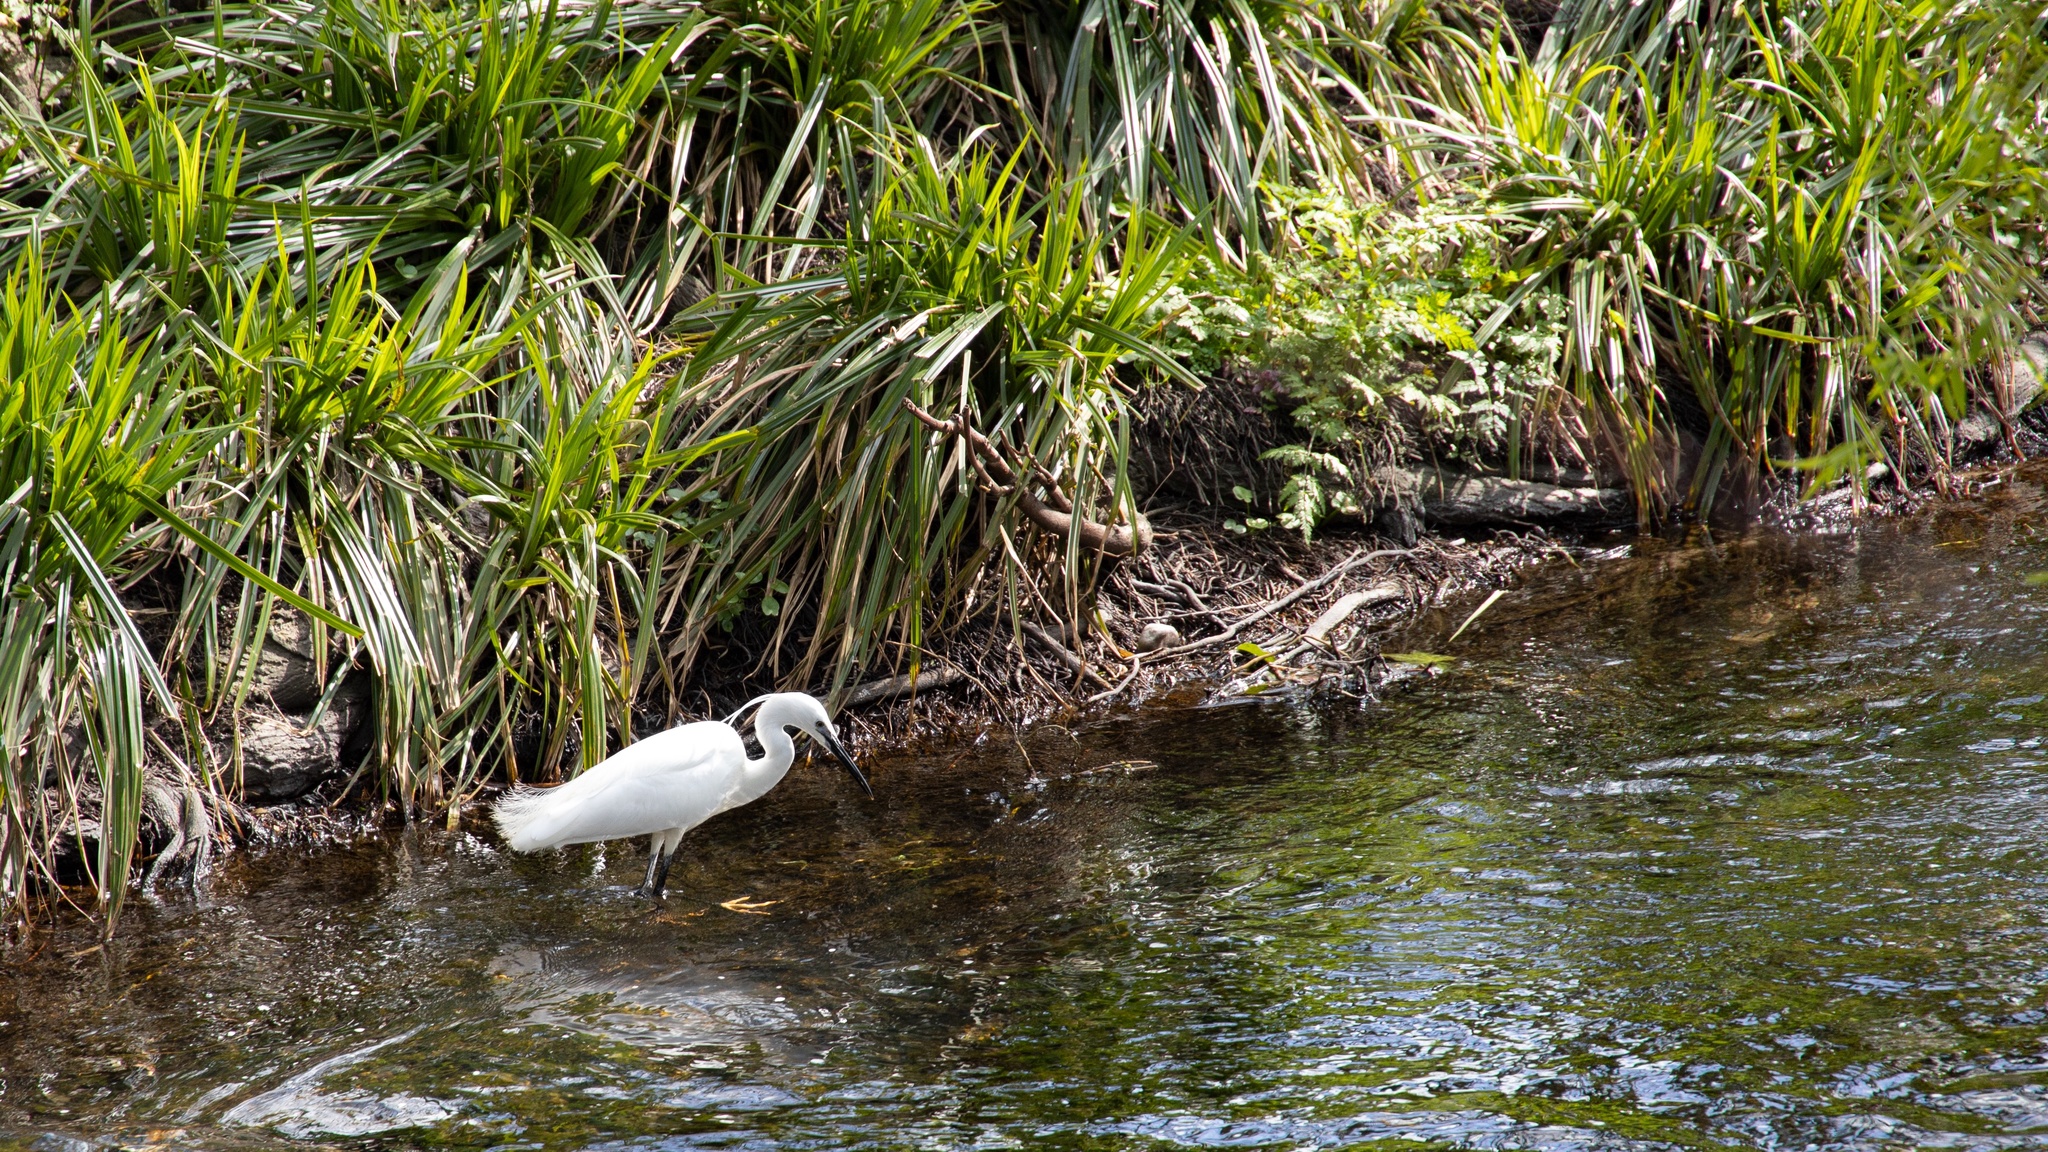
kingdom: Animalia
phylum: Chordata
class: Aves
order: Pelecaniformes
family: Ardeidae
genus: Egretta
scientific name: Egretta garzetta
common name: Little egret
